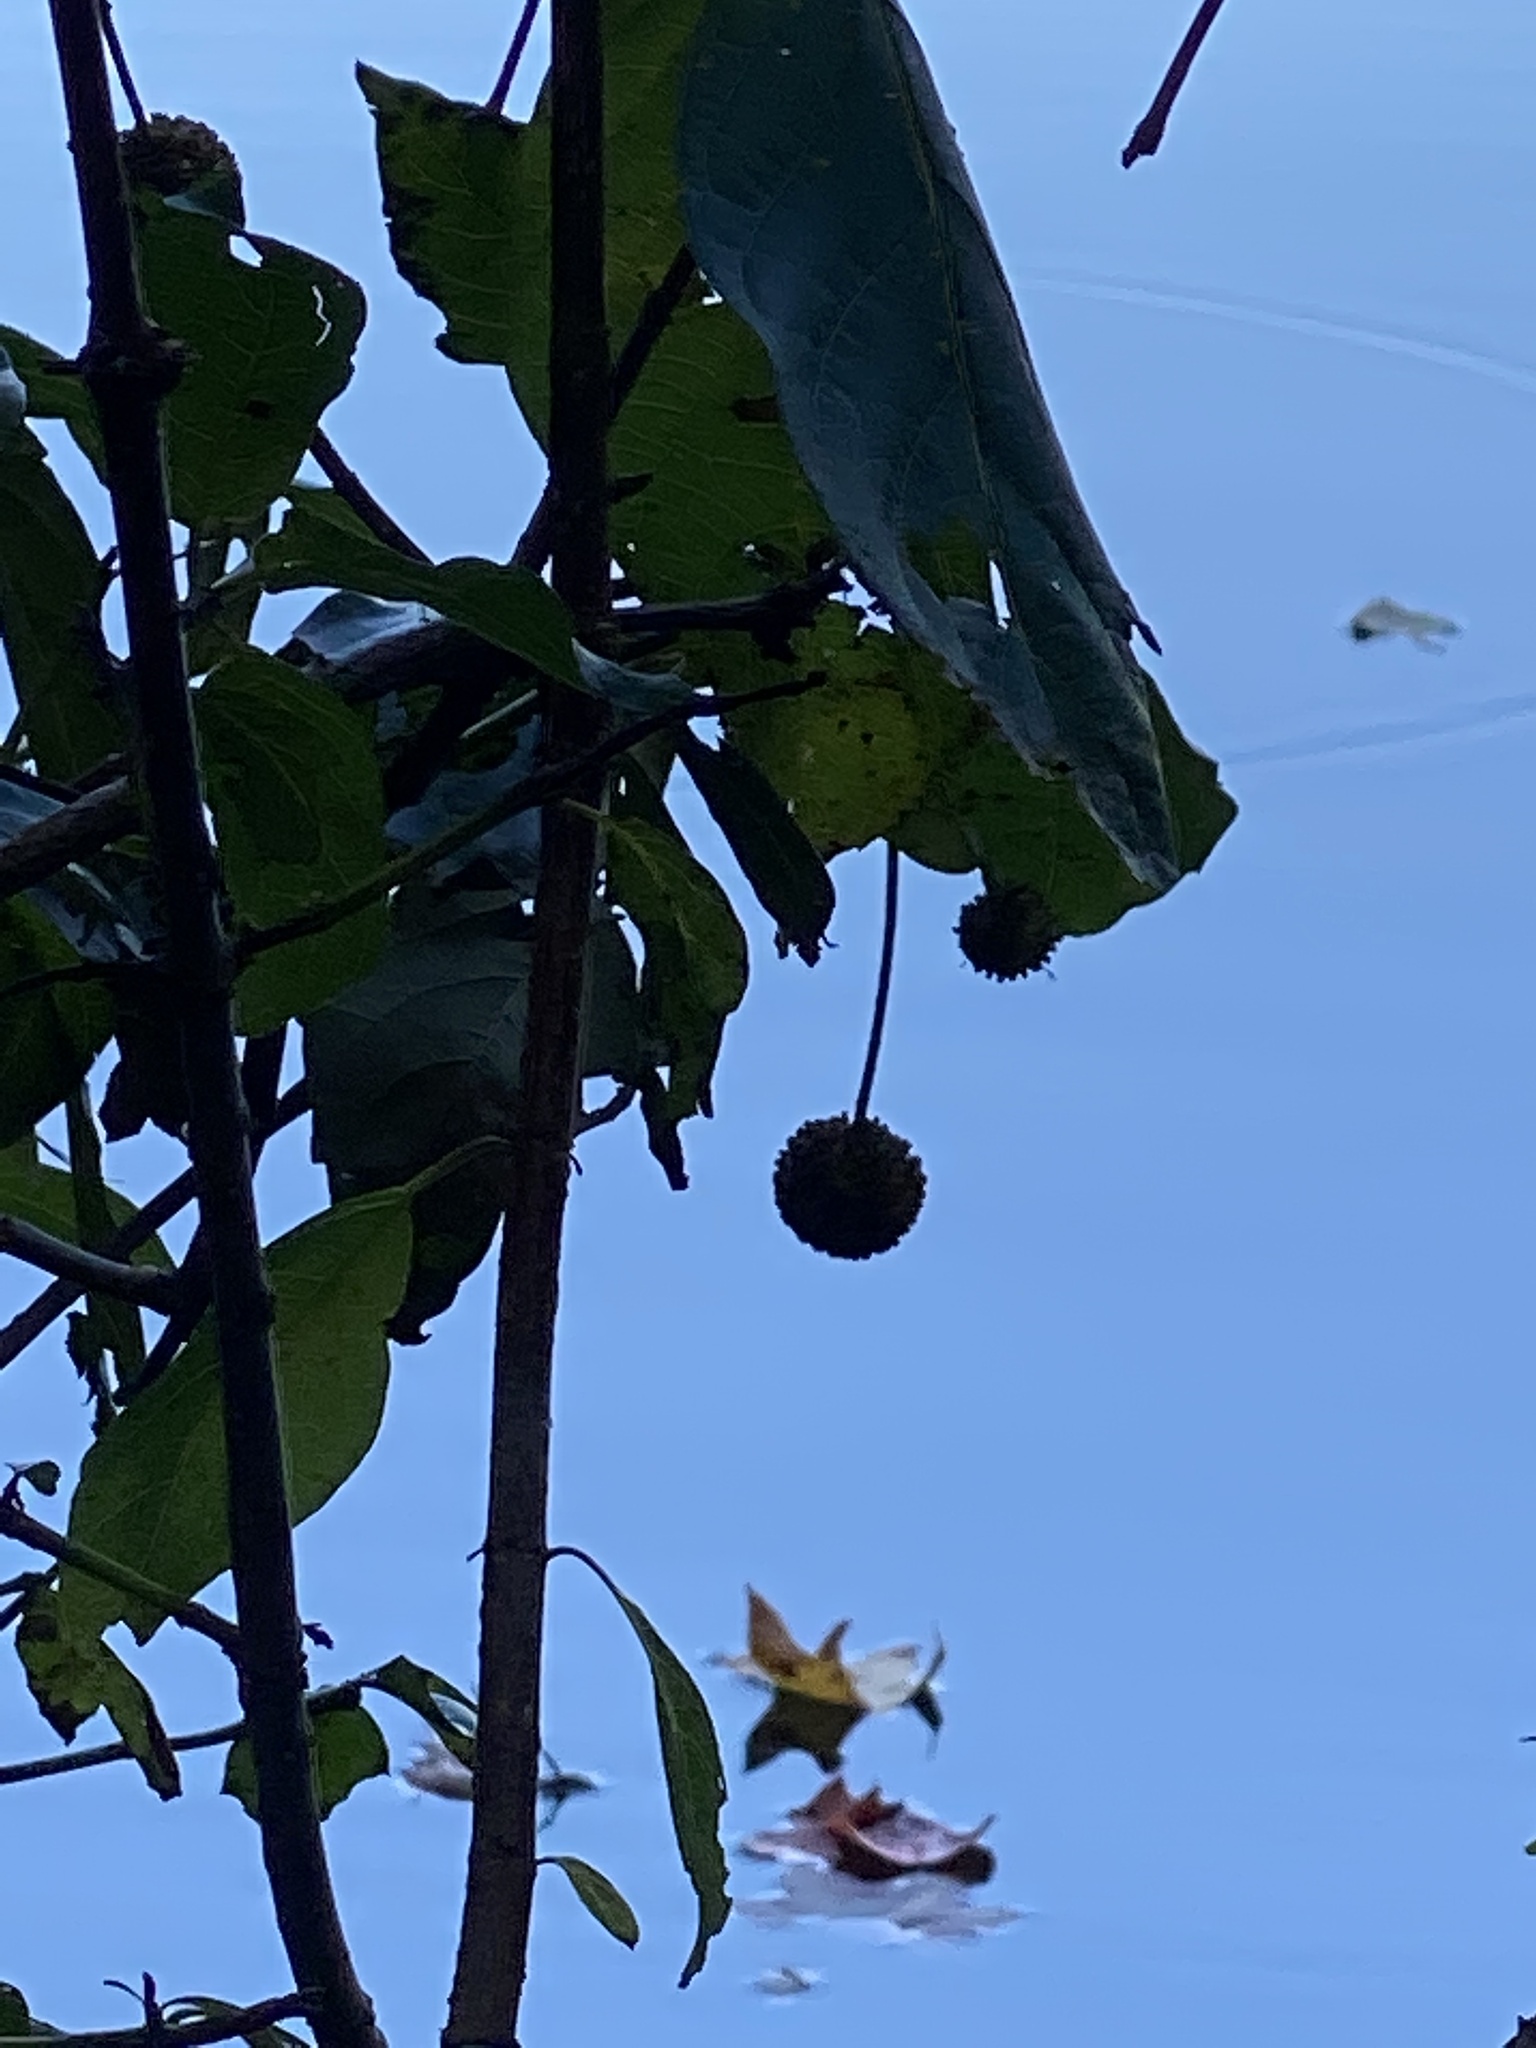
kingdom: Plantae
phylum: Tracheophyta
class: Magnoliopsida
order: Gentianales
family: Rubiaceae
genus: Cephalanthus
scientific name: Cephalanthus occidentalis
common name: Button-willow
